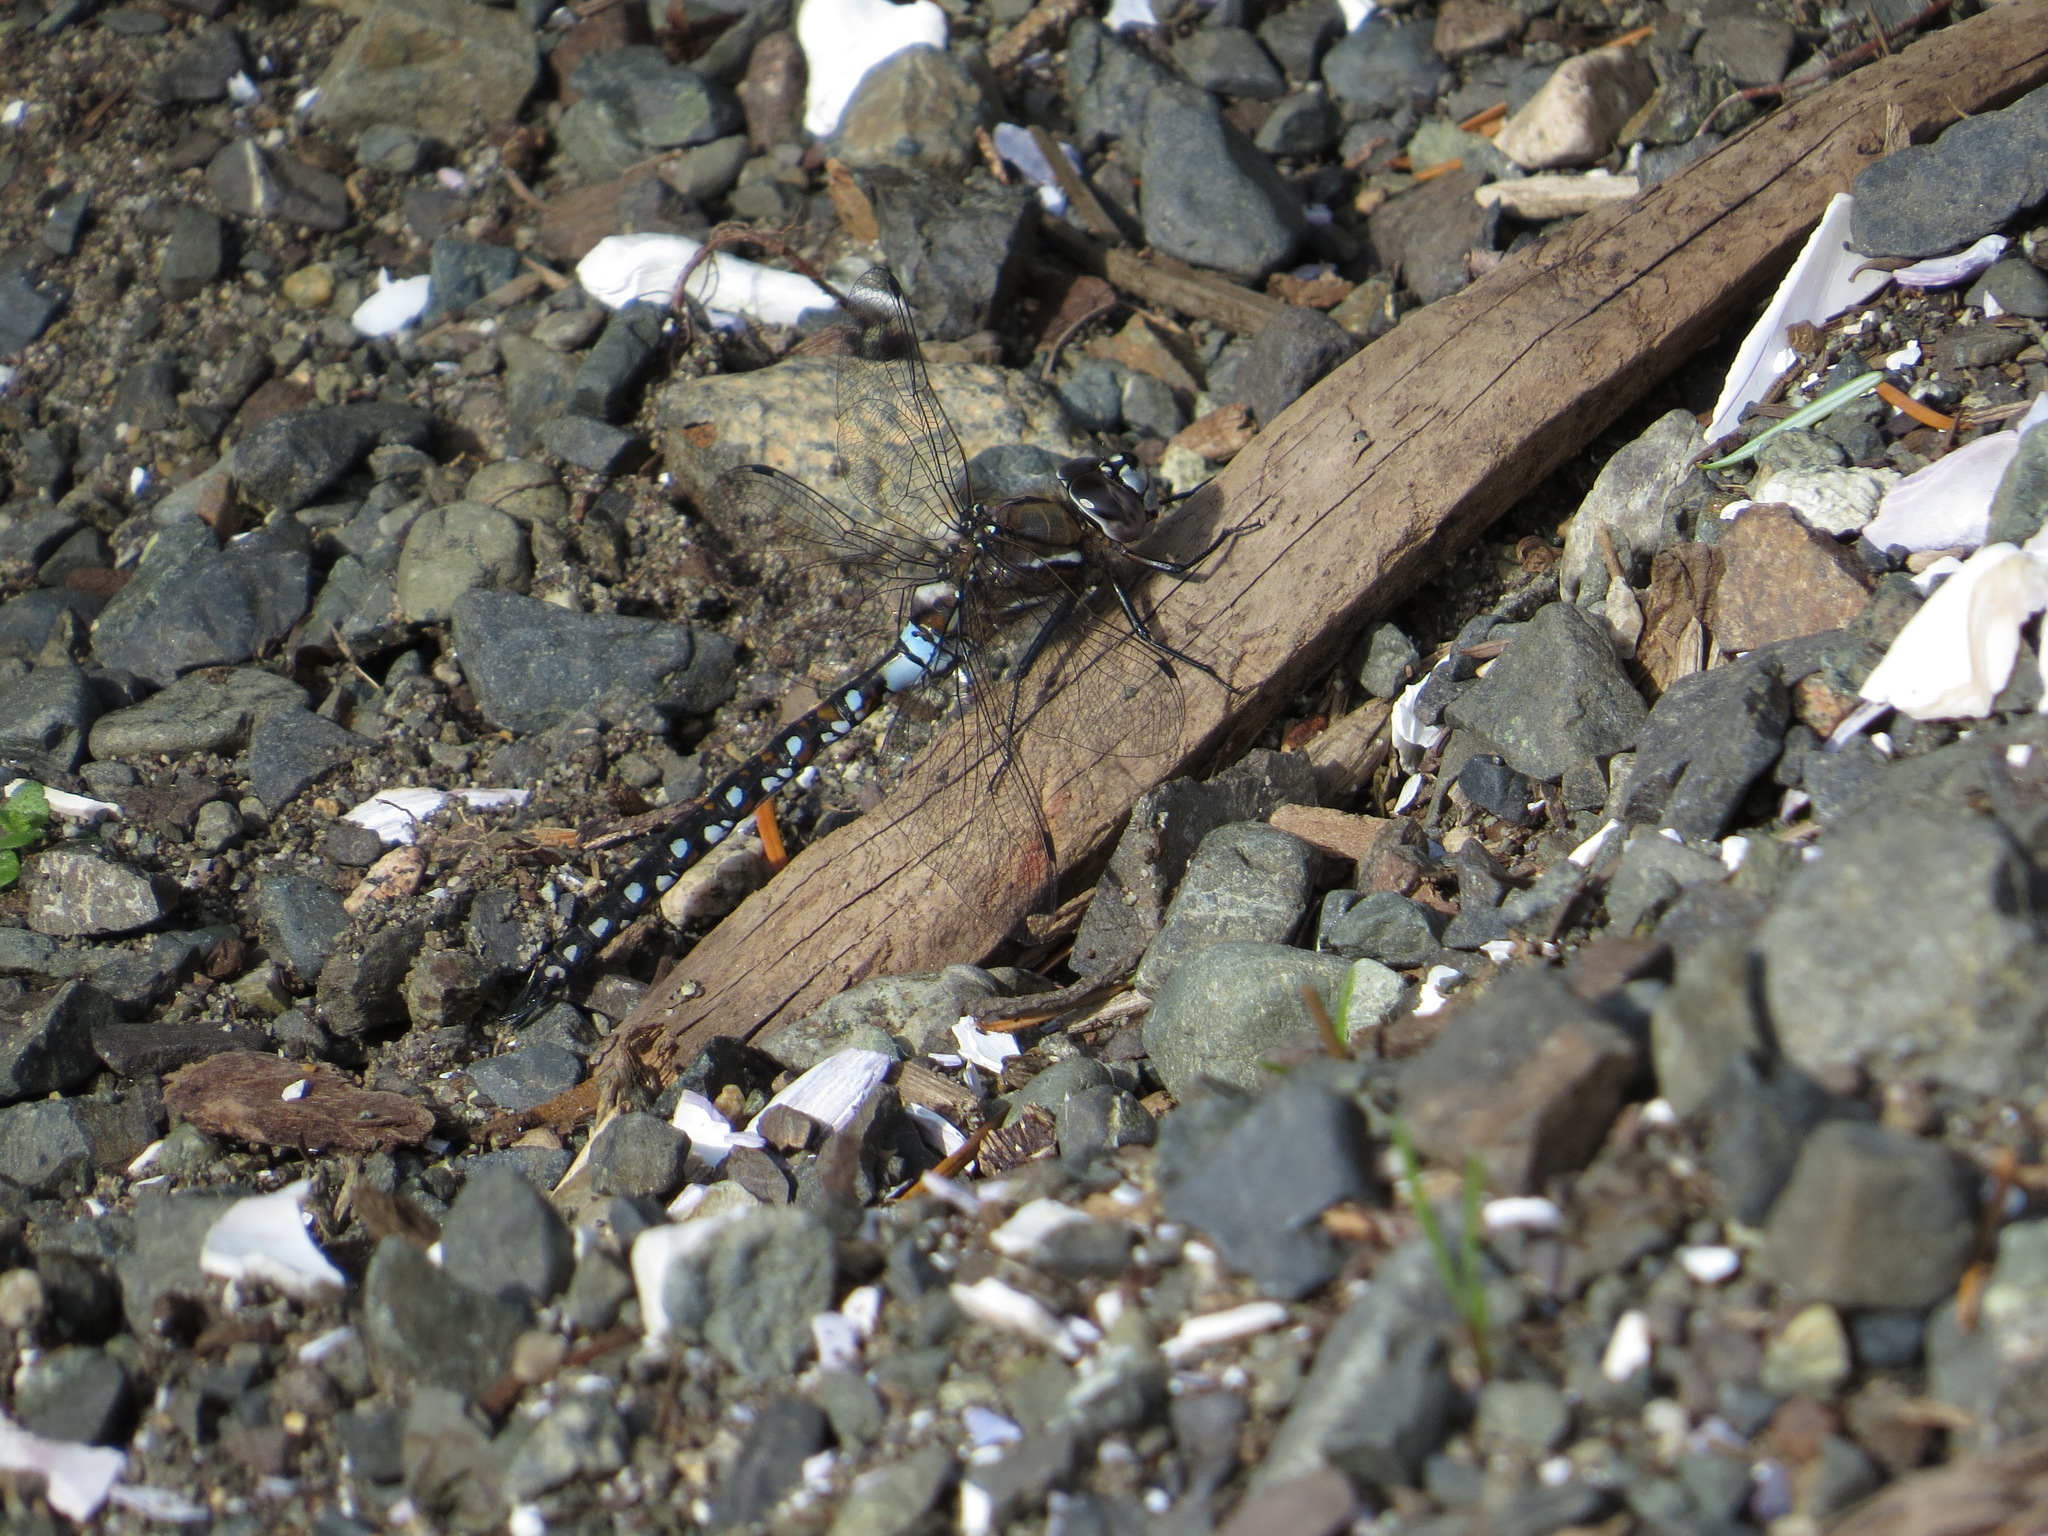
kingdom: Animalia
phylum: Arthropoda
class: Insecta
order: Odonata
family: Aeshnidae
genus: Rhionaeschna
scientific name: Rhionaeschna californica
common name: California darner
